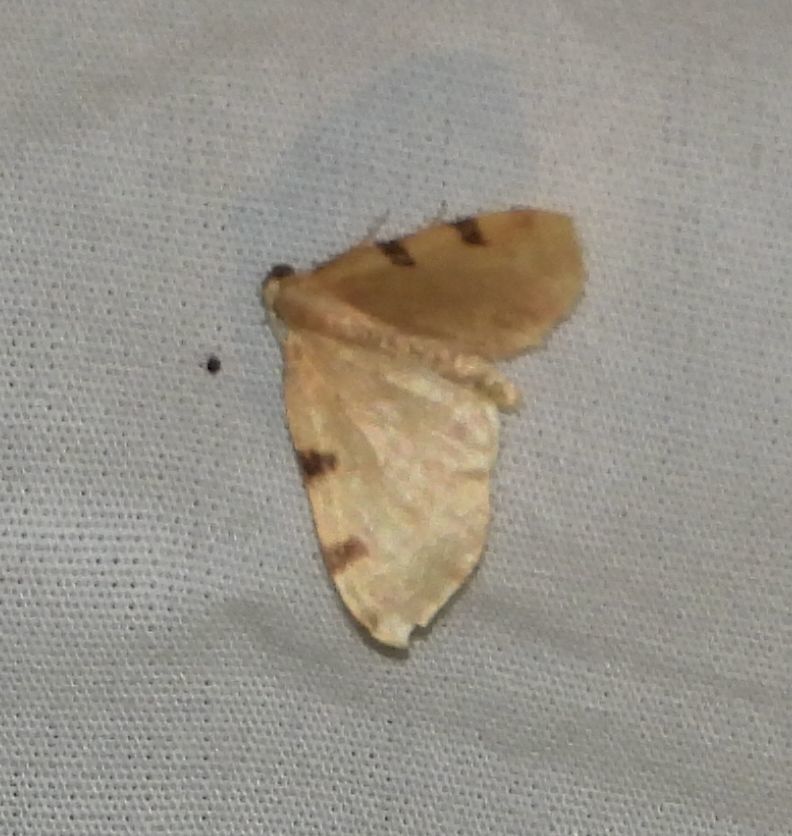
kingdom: Animalia
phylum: Arthropoda
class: Insecta
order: Lepidoptera
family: Geometridae
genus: Heterophleps
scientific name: Heterophleps triguttaria
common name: Three-spotted fillip
